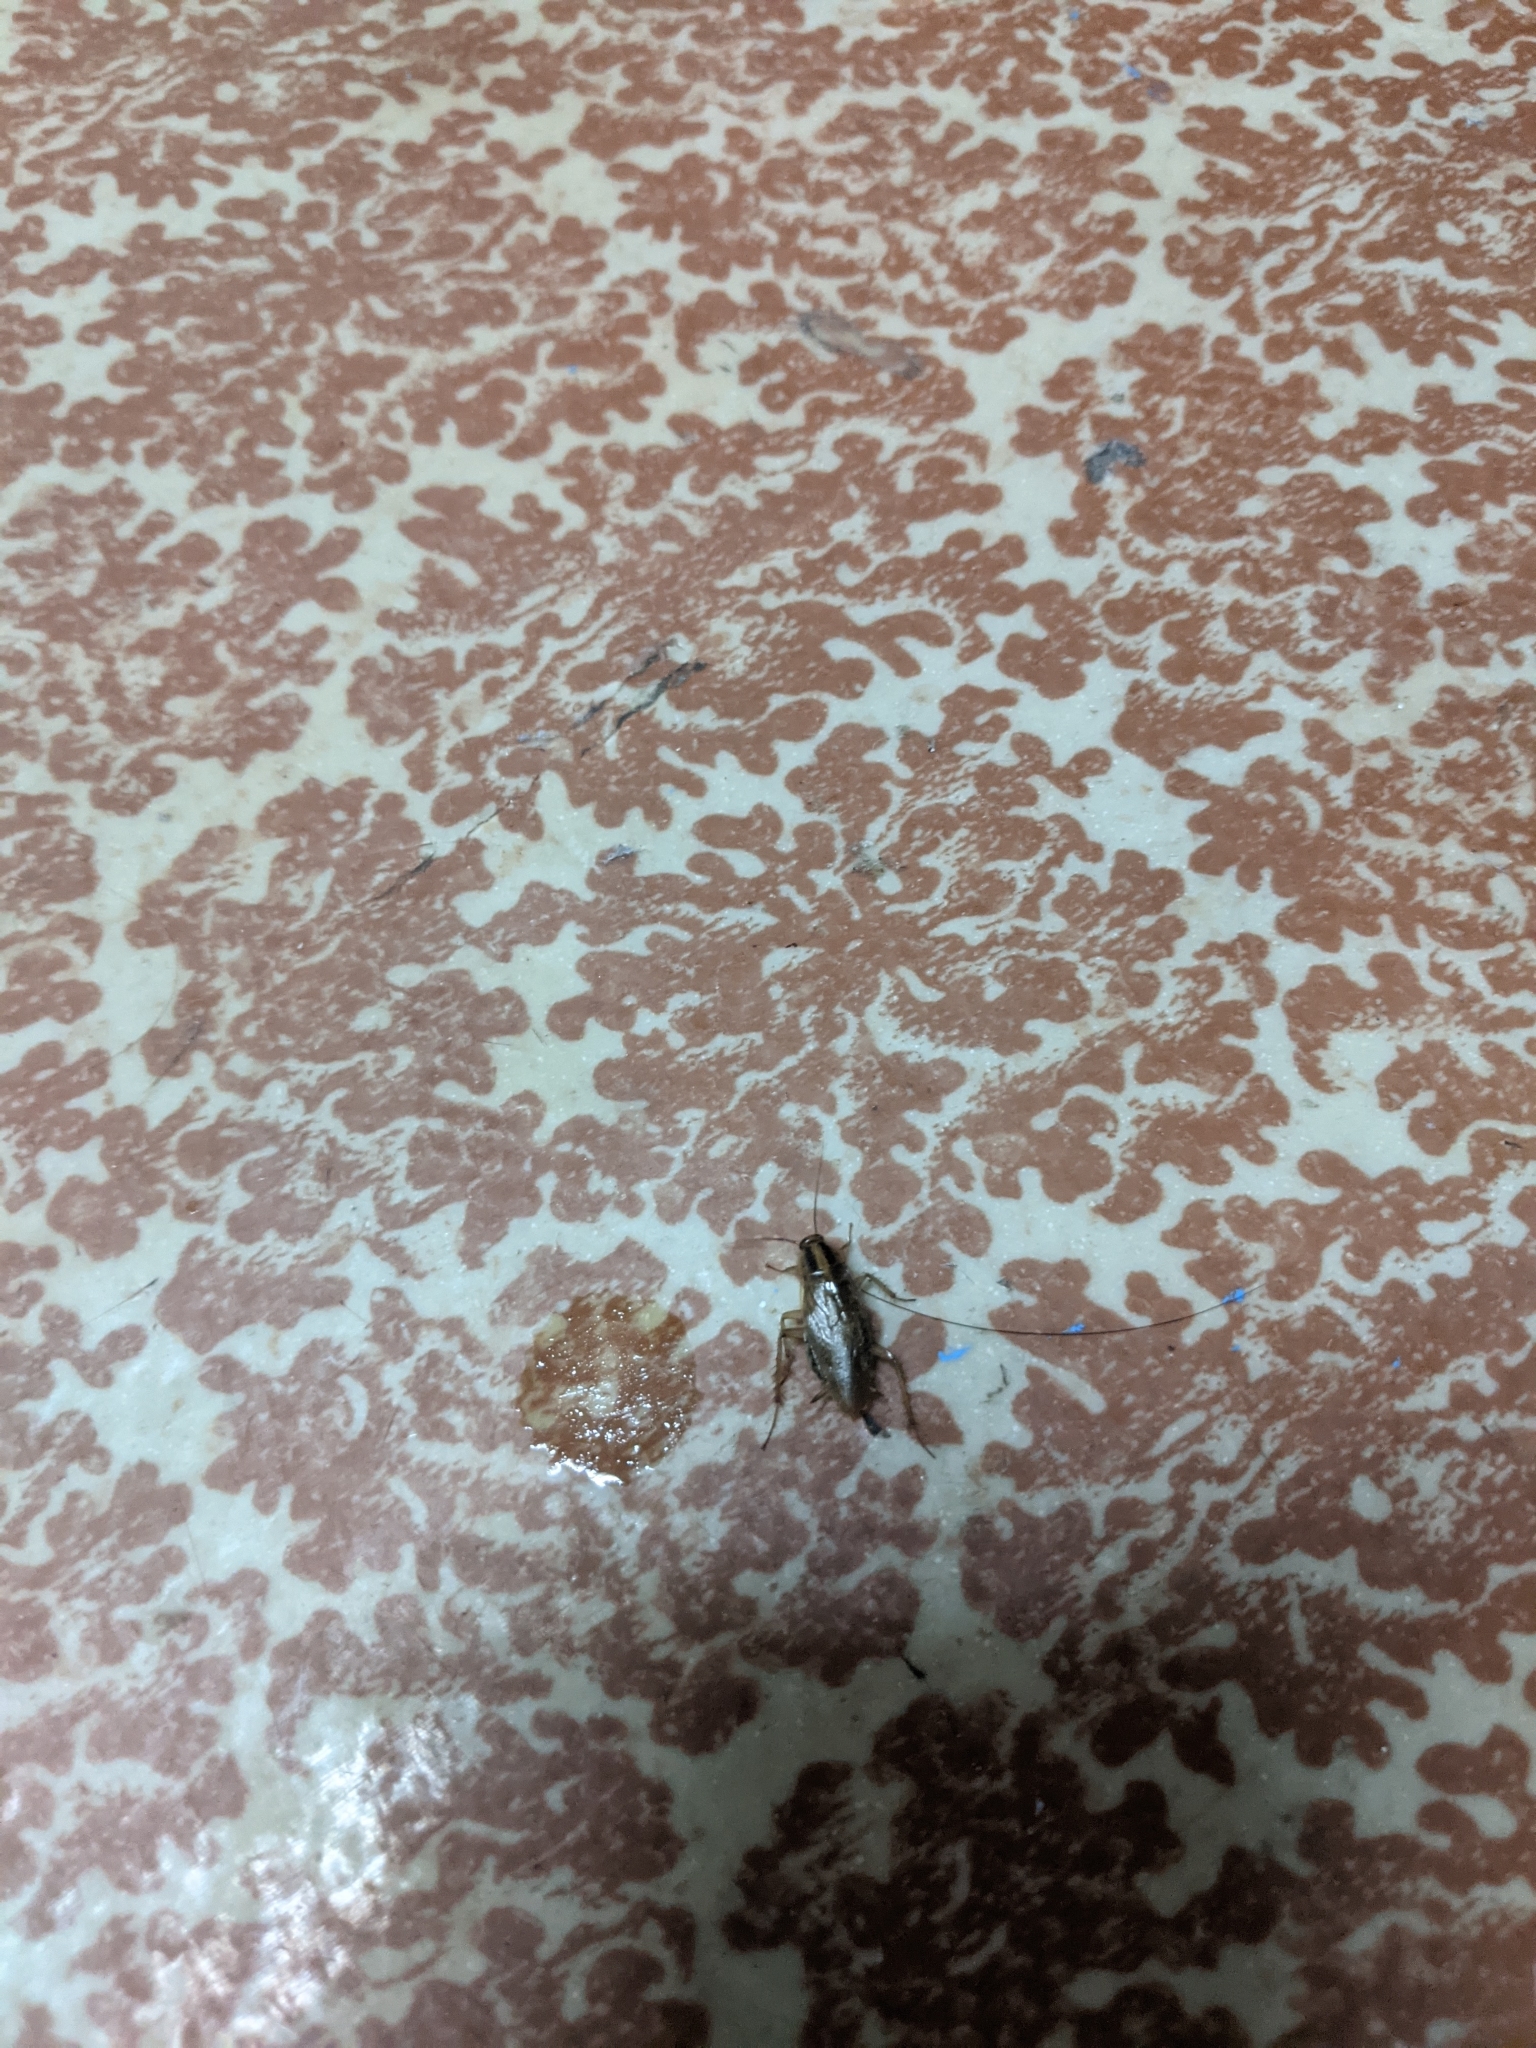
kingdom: Animalia
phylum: Arthropoda
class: Insecta
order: Blattodea
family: Ectobiidae
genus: Blattella
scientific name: Blattella germanica
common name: German cockroach
